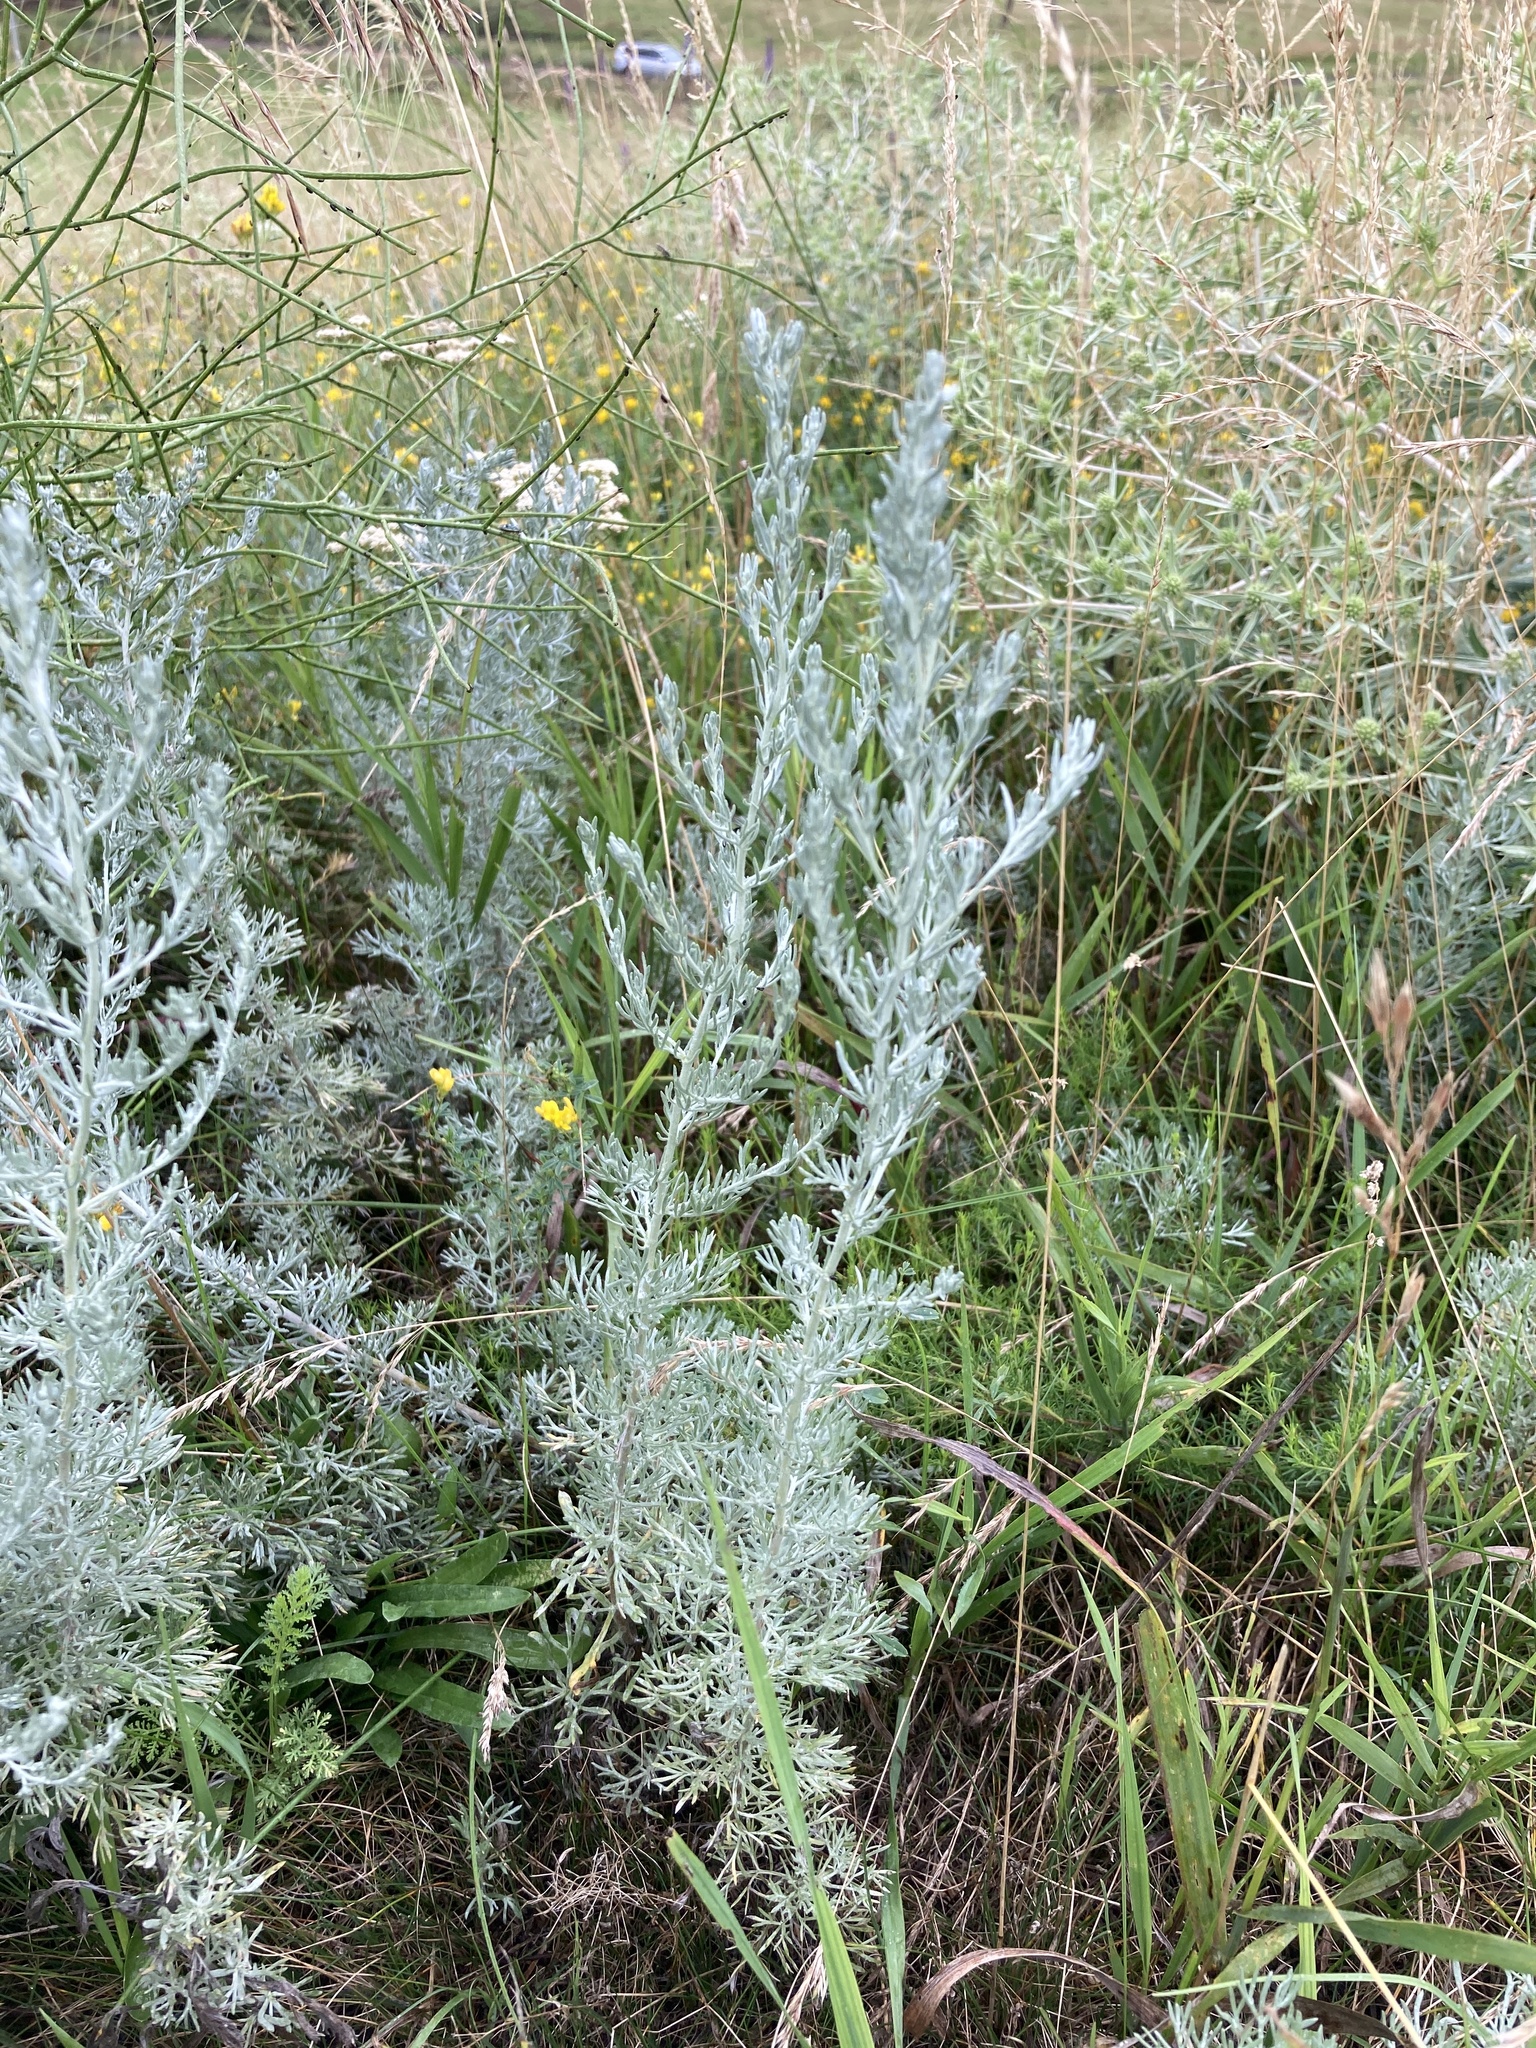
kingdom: Plantae
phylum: Tracheophyta
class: Magnoliopsida
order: Asterales
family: Asteraceae
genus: Artemisia
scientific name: Artemisia austriaca
